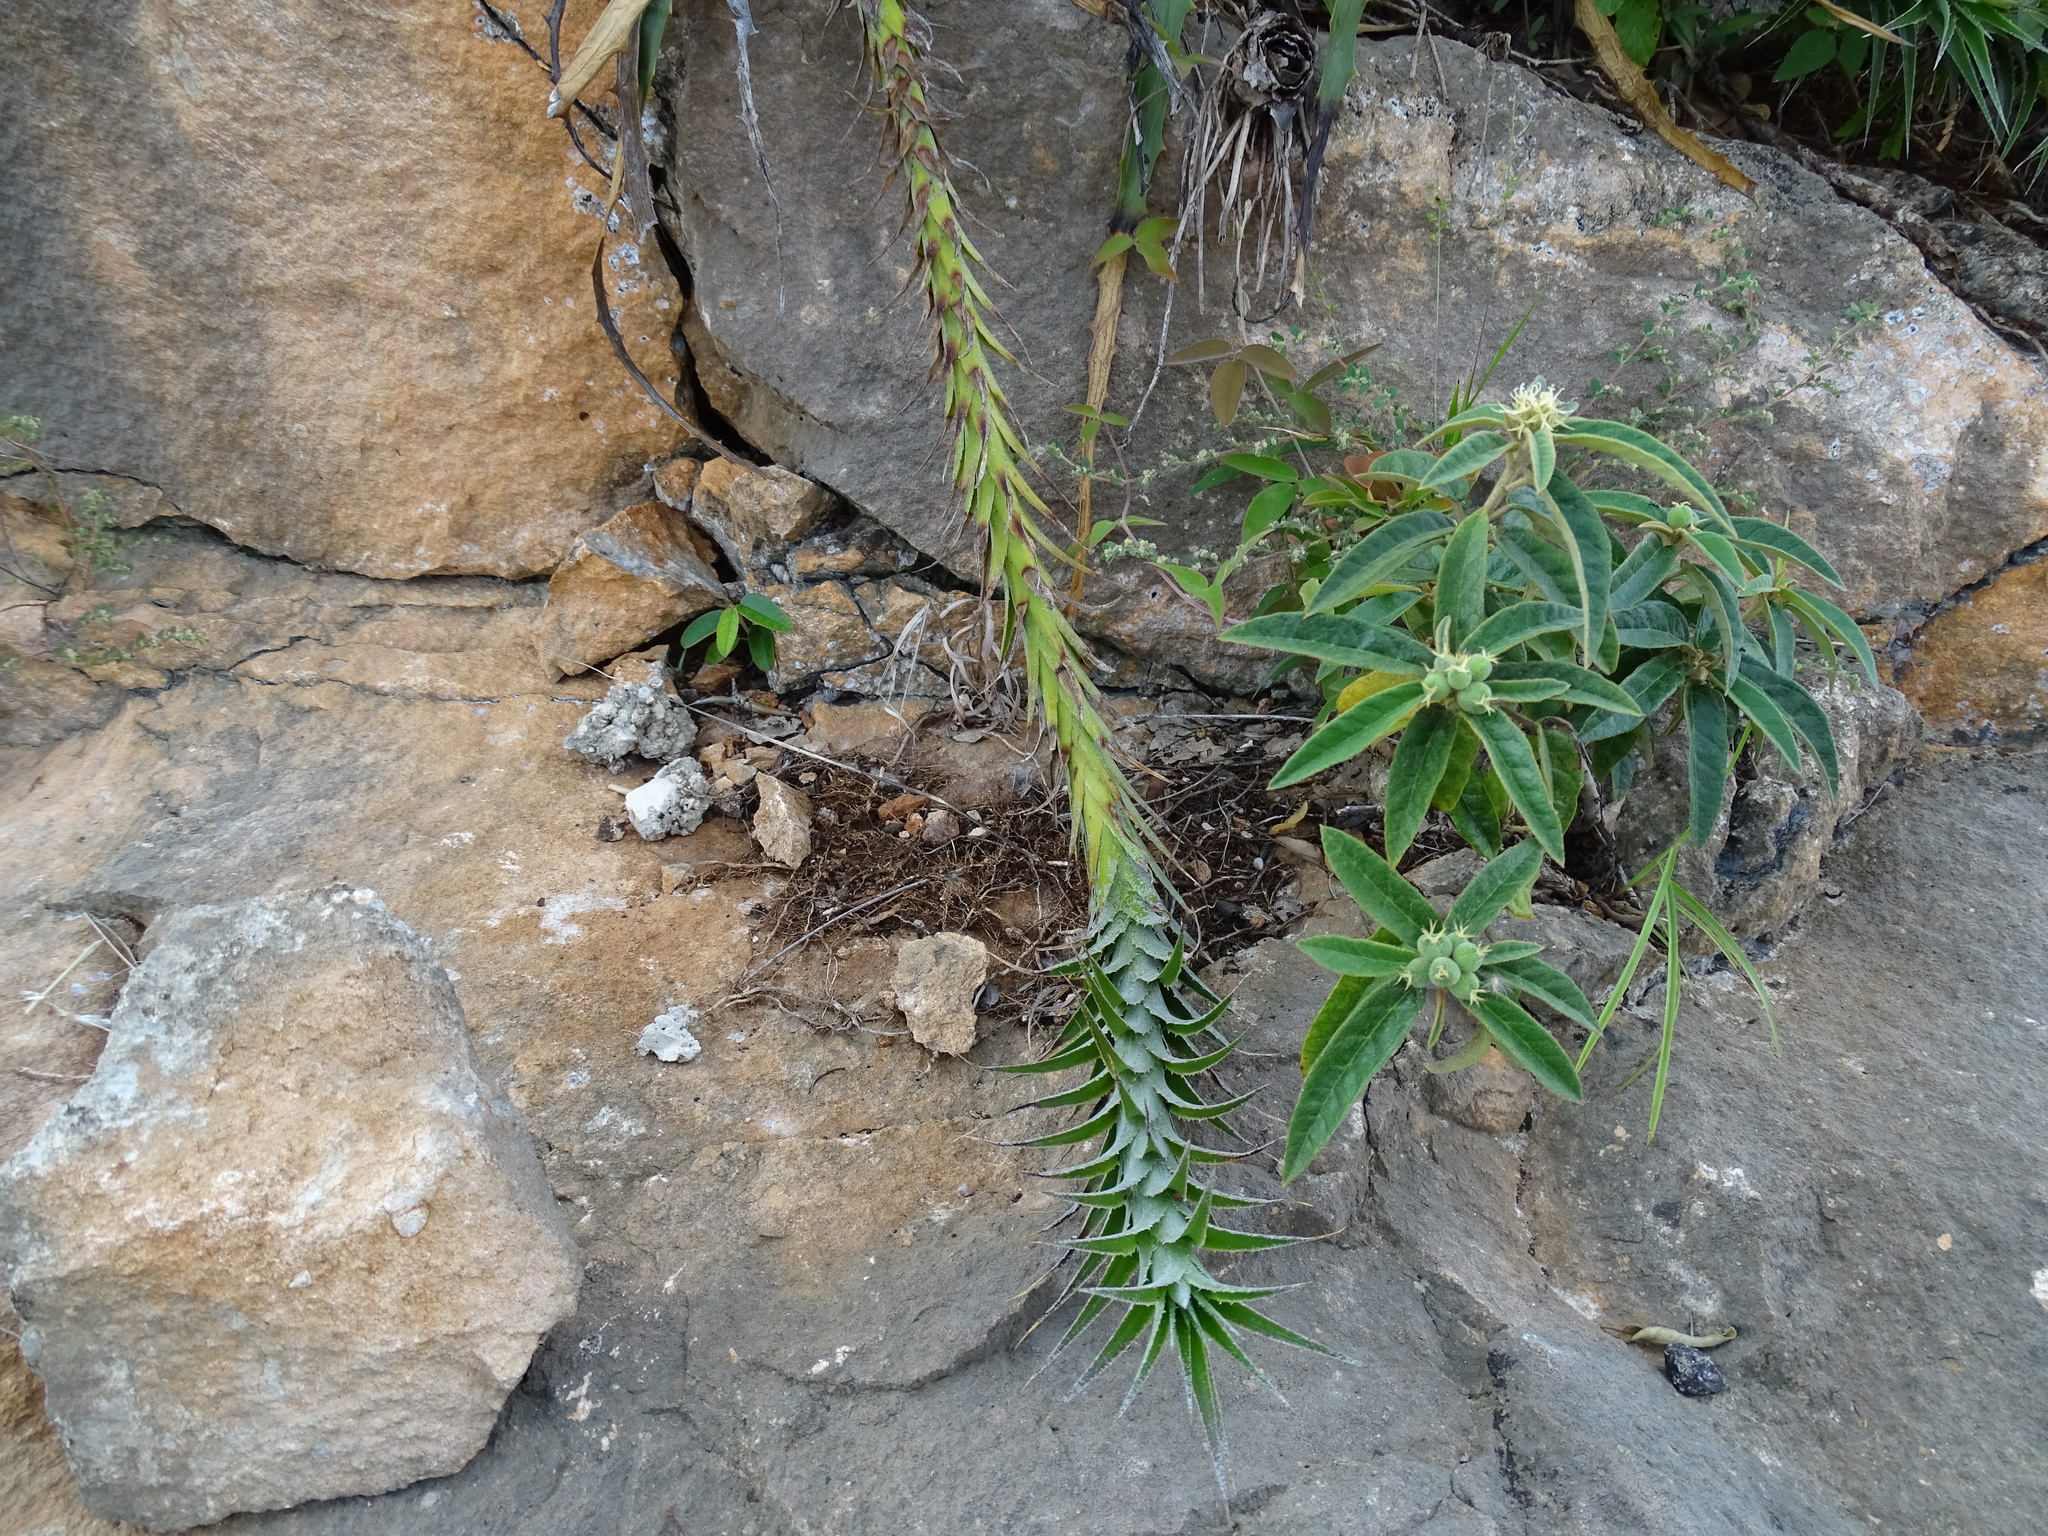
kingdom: Plantae
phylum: Tracheophyta
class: Liliopsida
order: Poales
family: Bromeliaceae
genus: Hechtia
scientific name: Hechtia schottii
